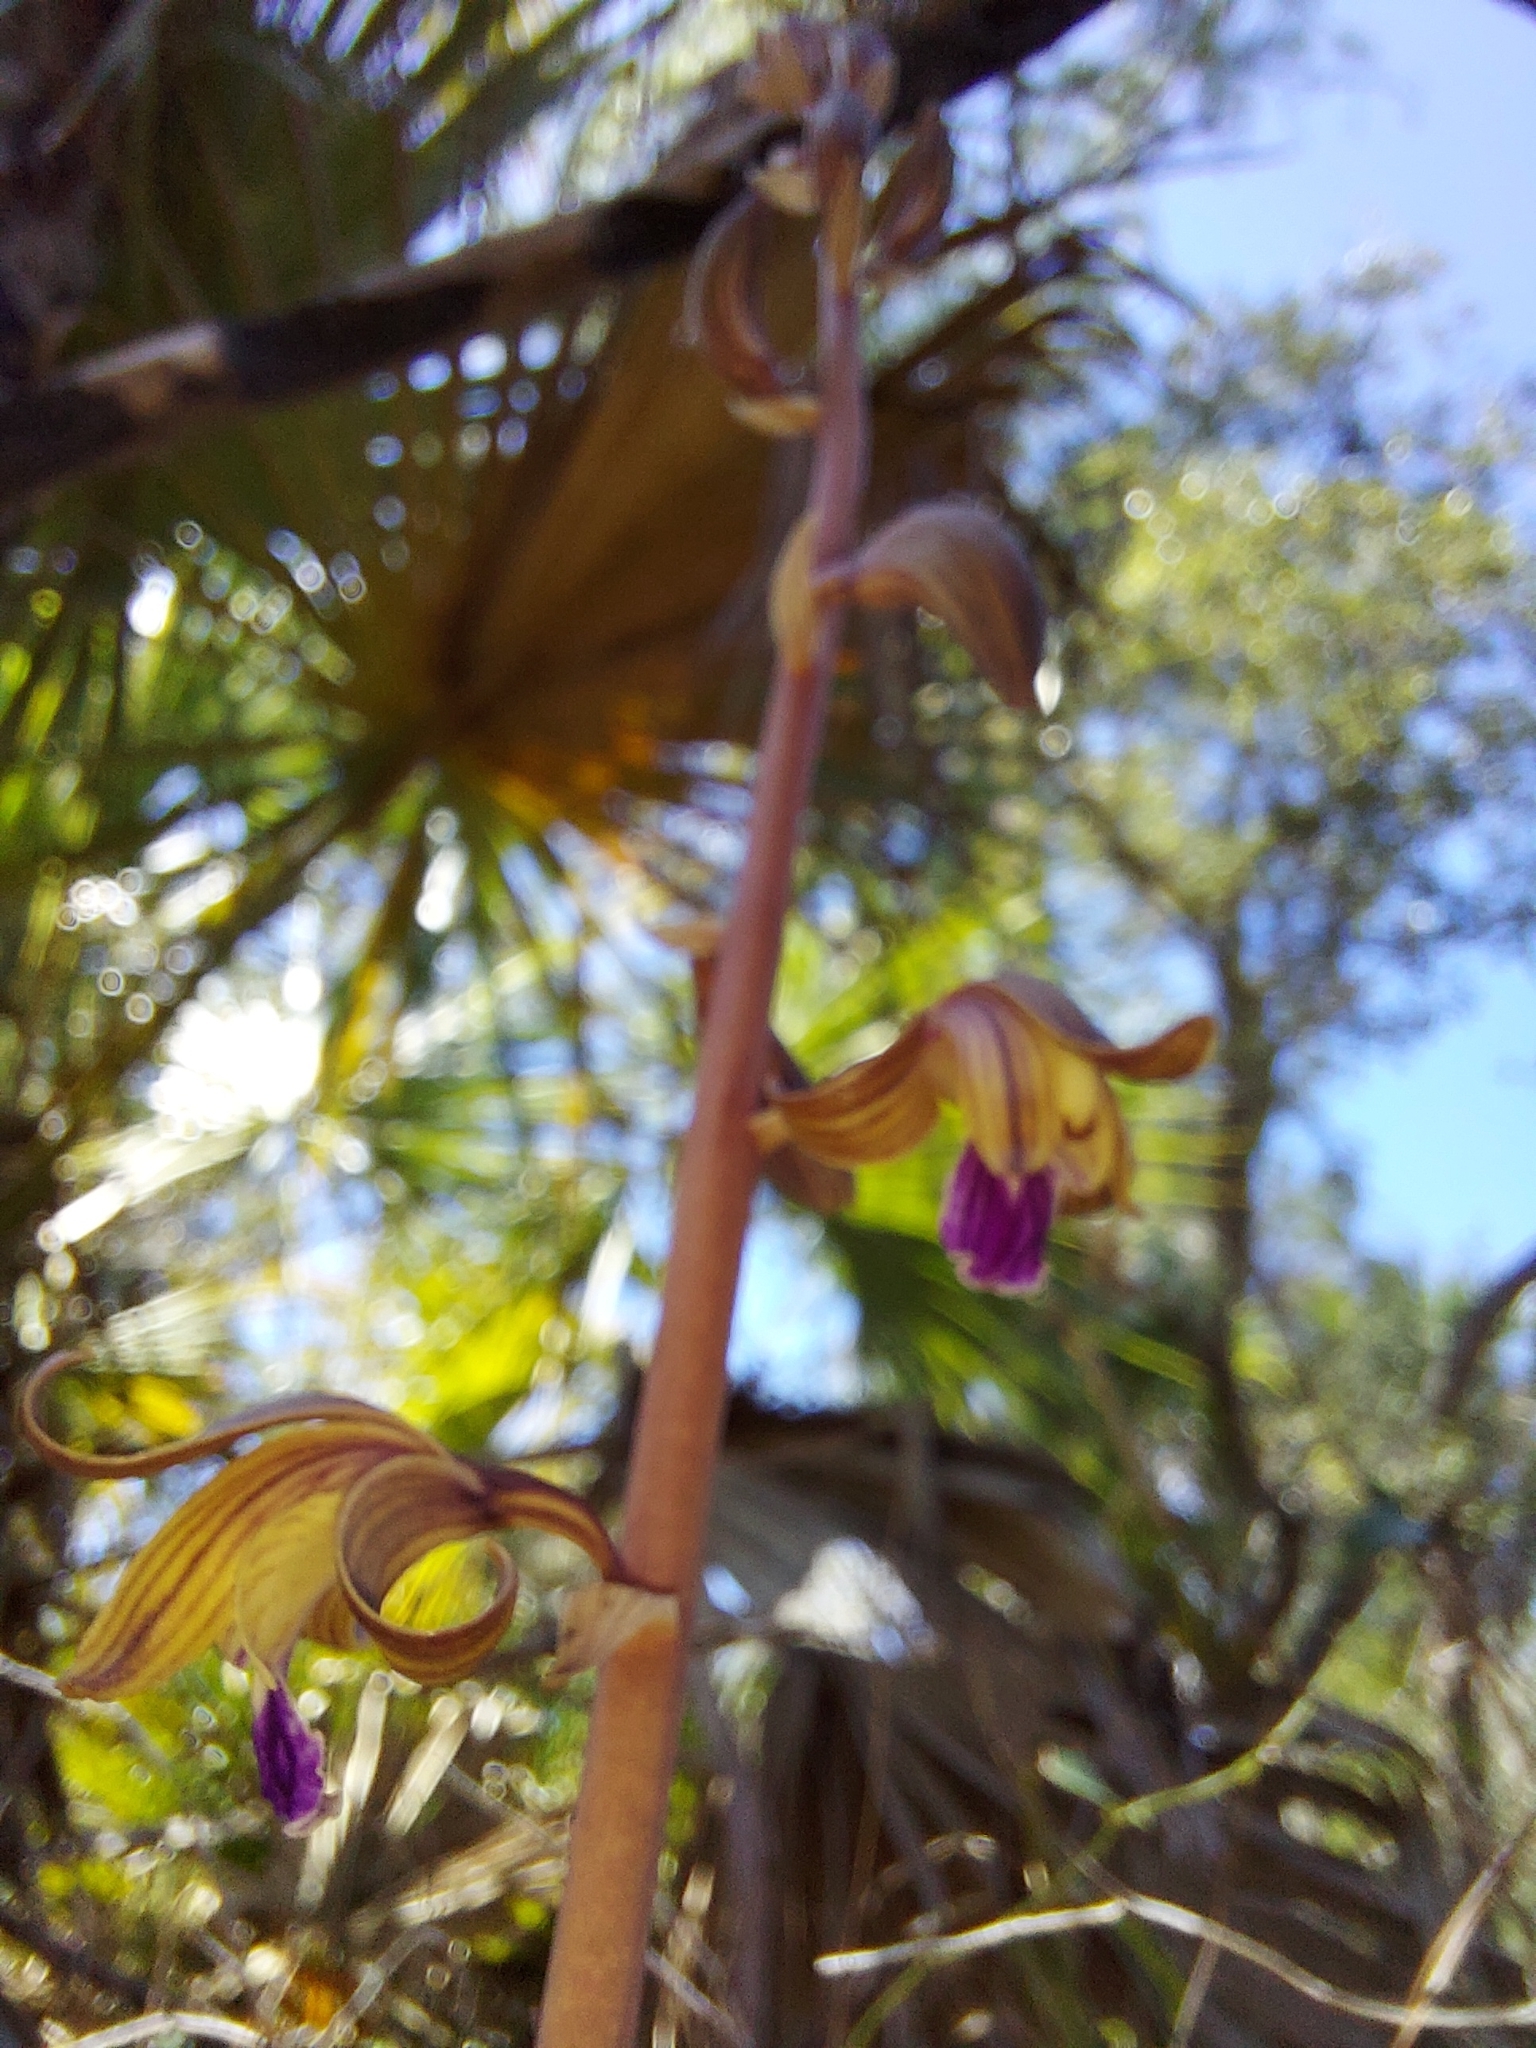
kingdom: Plantae
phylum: Tracheophyta
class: Liliopsida
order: Asparagales
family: Orchidaceae
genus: Bletia
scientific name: Bletia spicata
